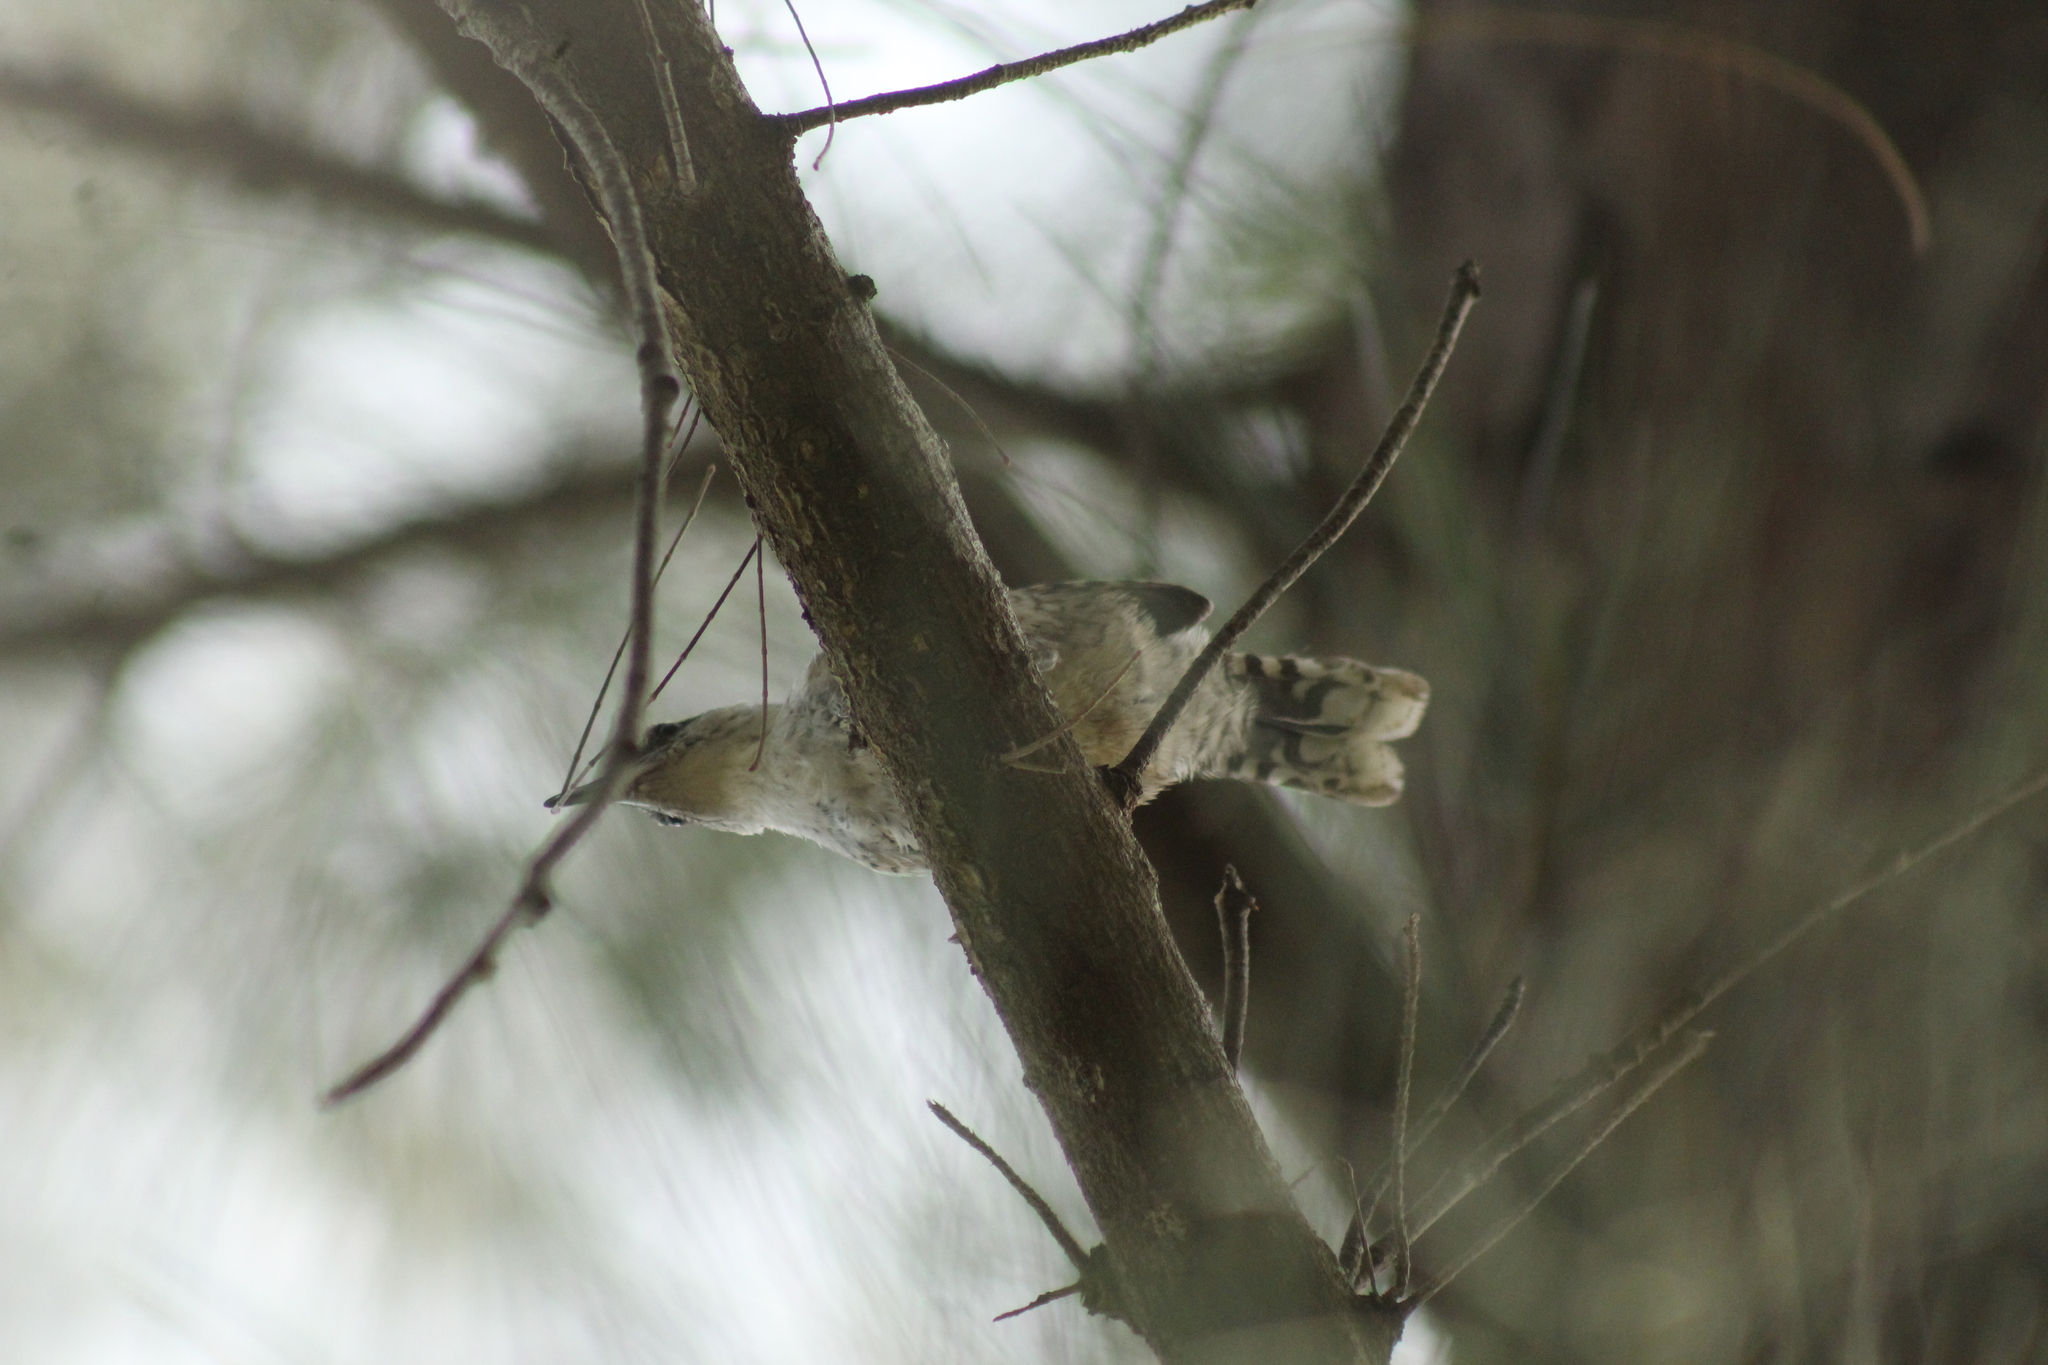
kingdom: Animalia
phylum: Chordata
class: Aves
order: Passeriformes
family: Troglodytidae
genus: Campylorhynchus
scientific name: Campylorhynchus rufinucha
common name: Rufous-naped wren
